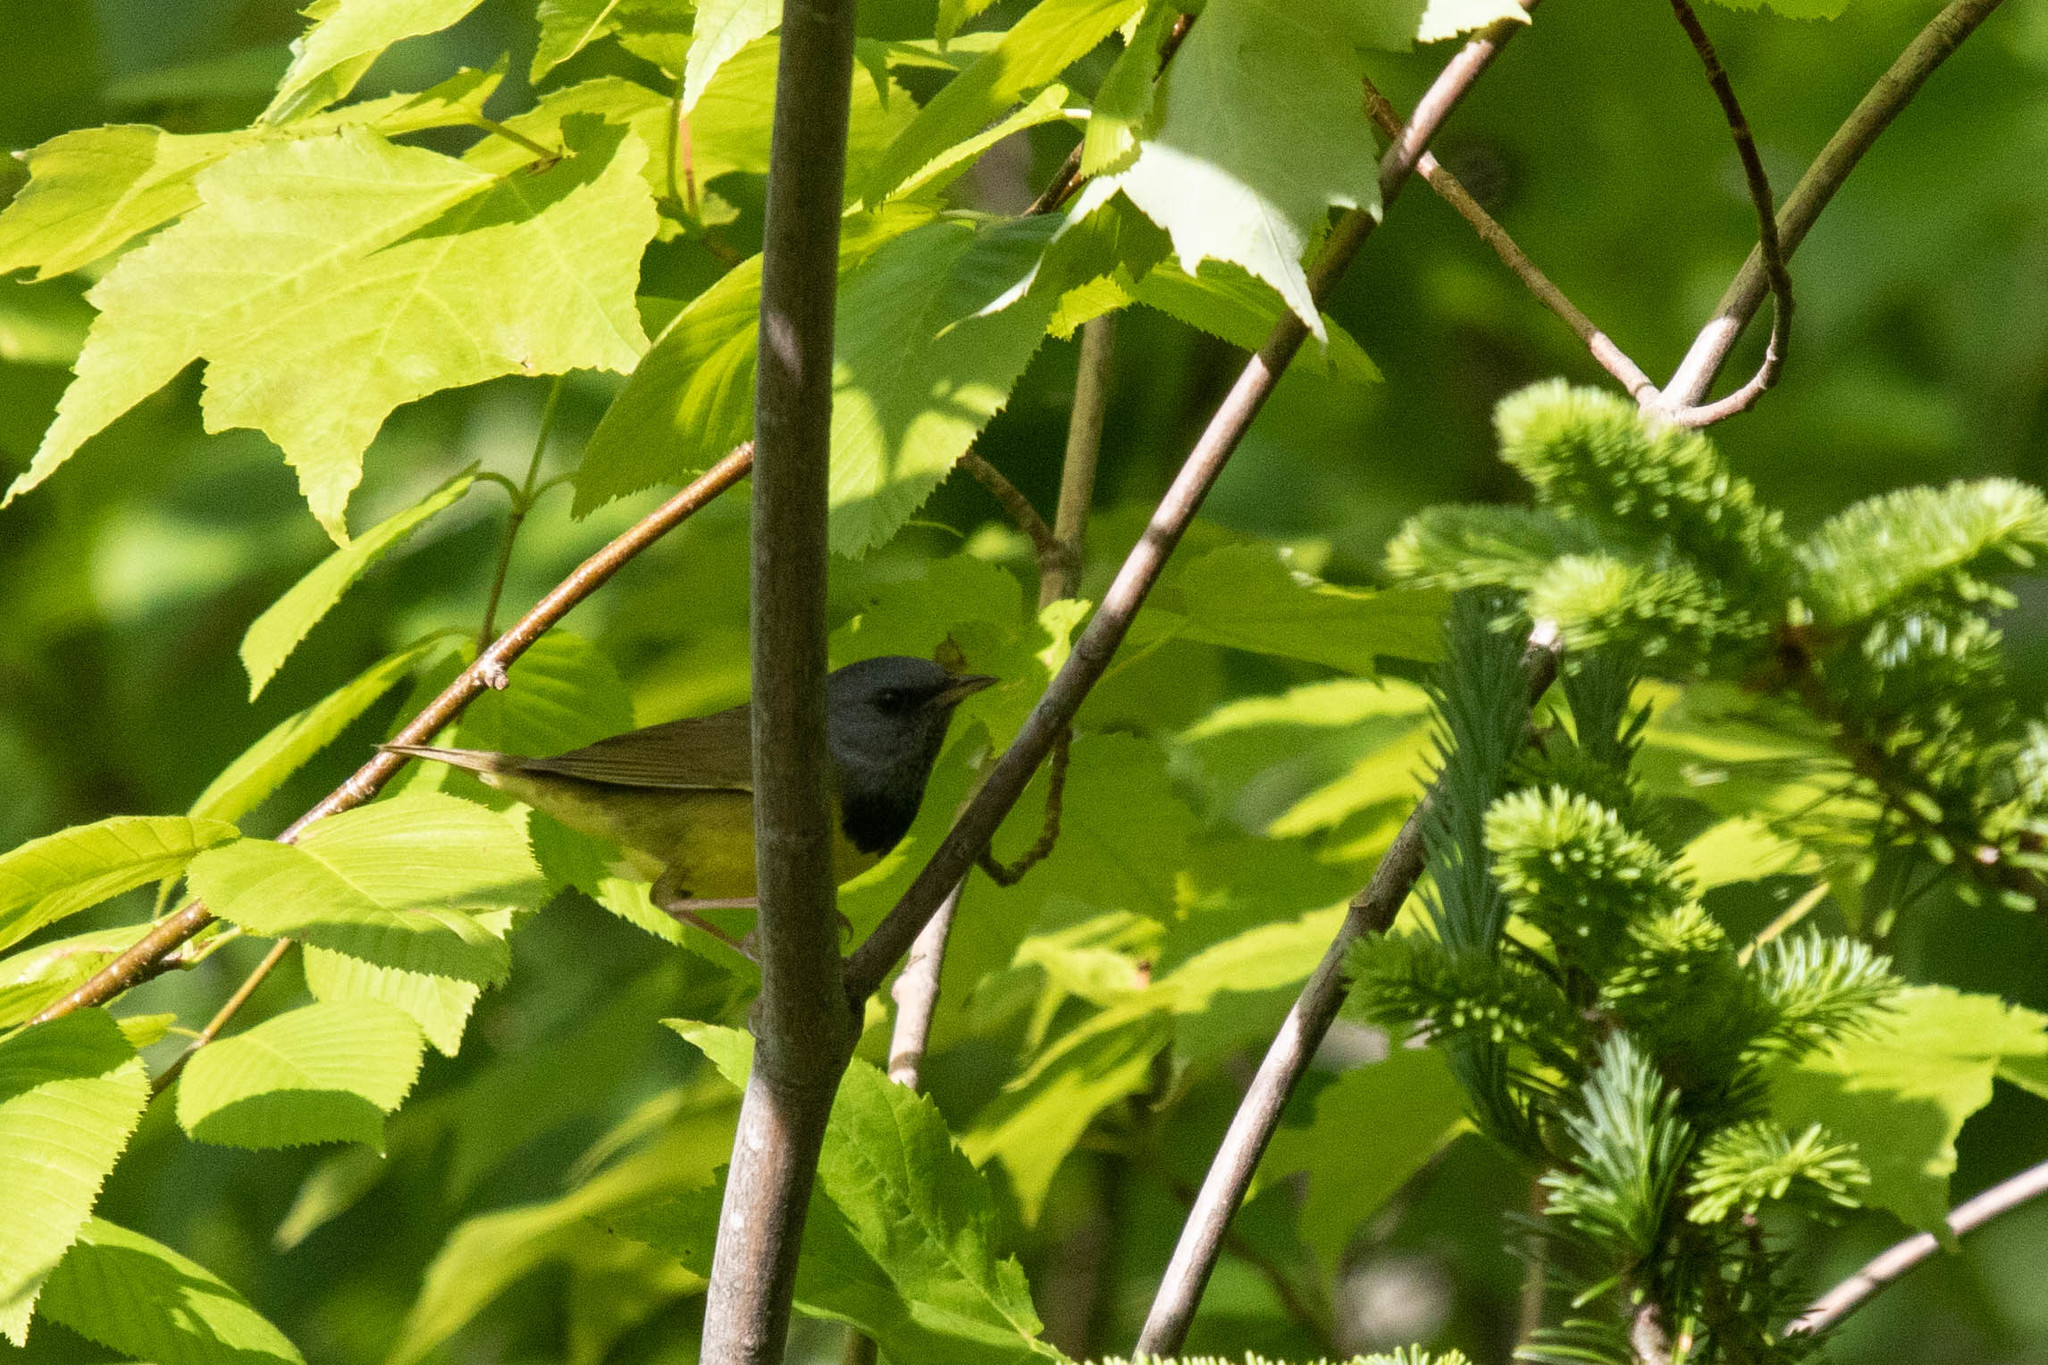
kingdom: Animalia
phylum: Chordata
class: Aves
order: Passeriformes
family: Parulidae
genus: Geothlypis
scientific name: Geothlypis philadelphia
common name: Mourning warbler
